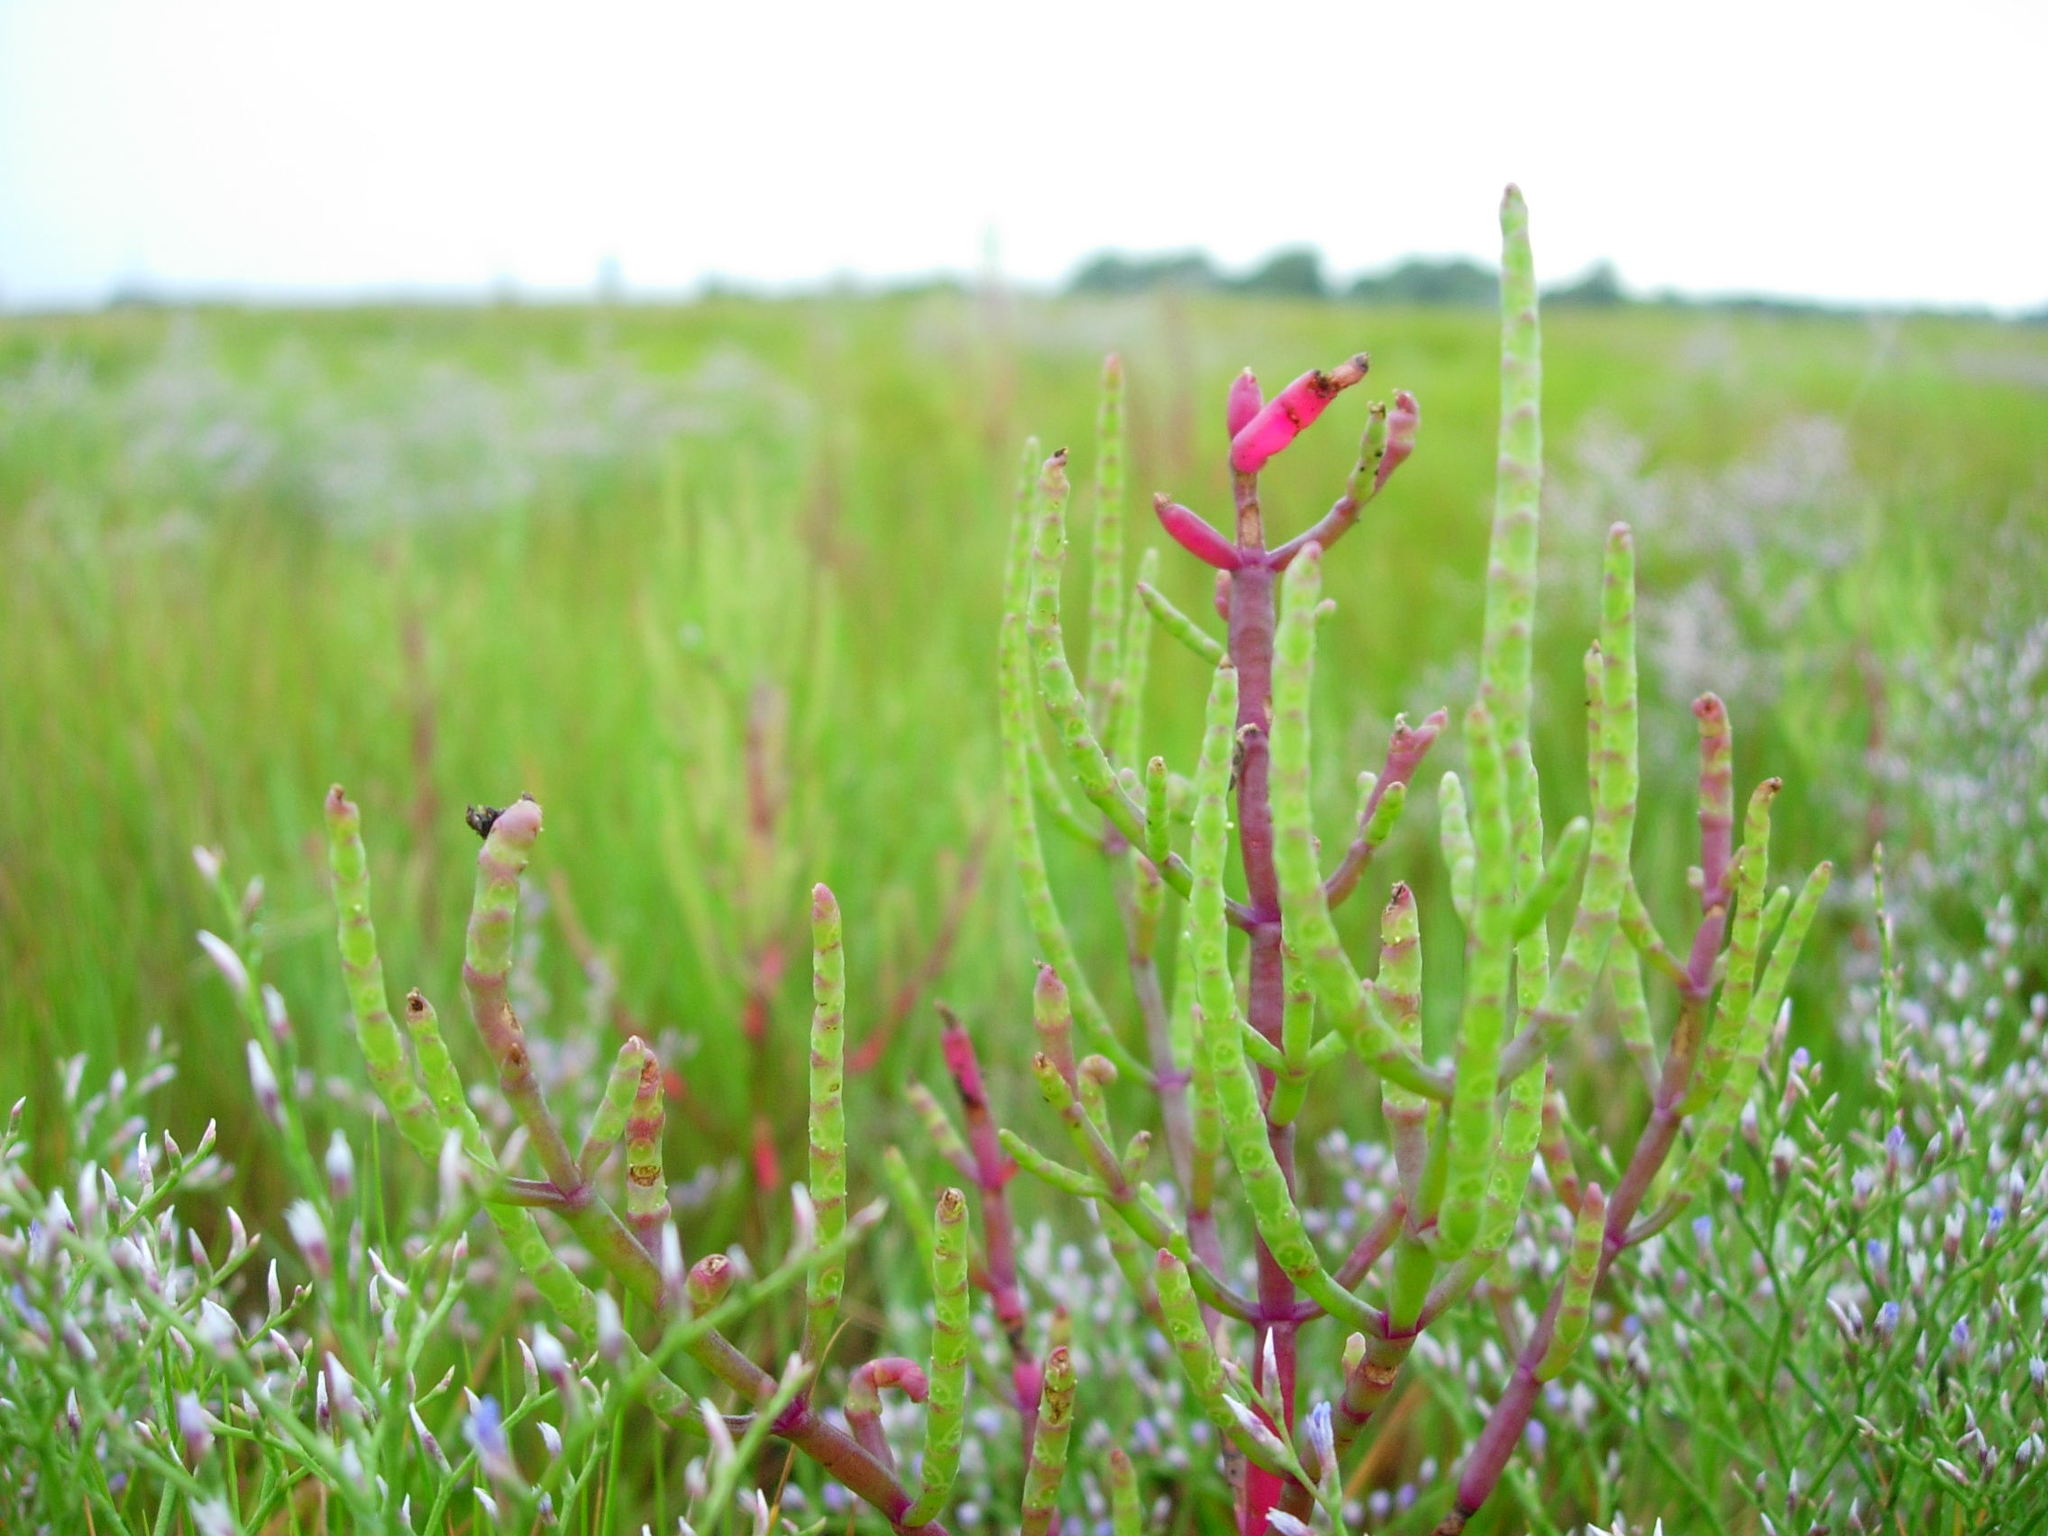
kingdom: Plantae
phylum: Tracheophyta
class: Magnoliopsida
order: Caryophyllales
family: Amaranthaceae
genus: Salicornia
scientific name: Salicornia virginica
